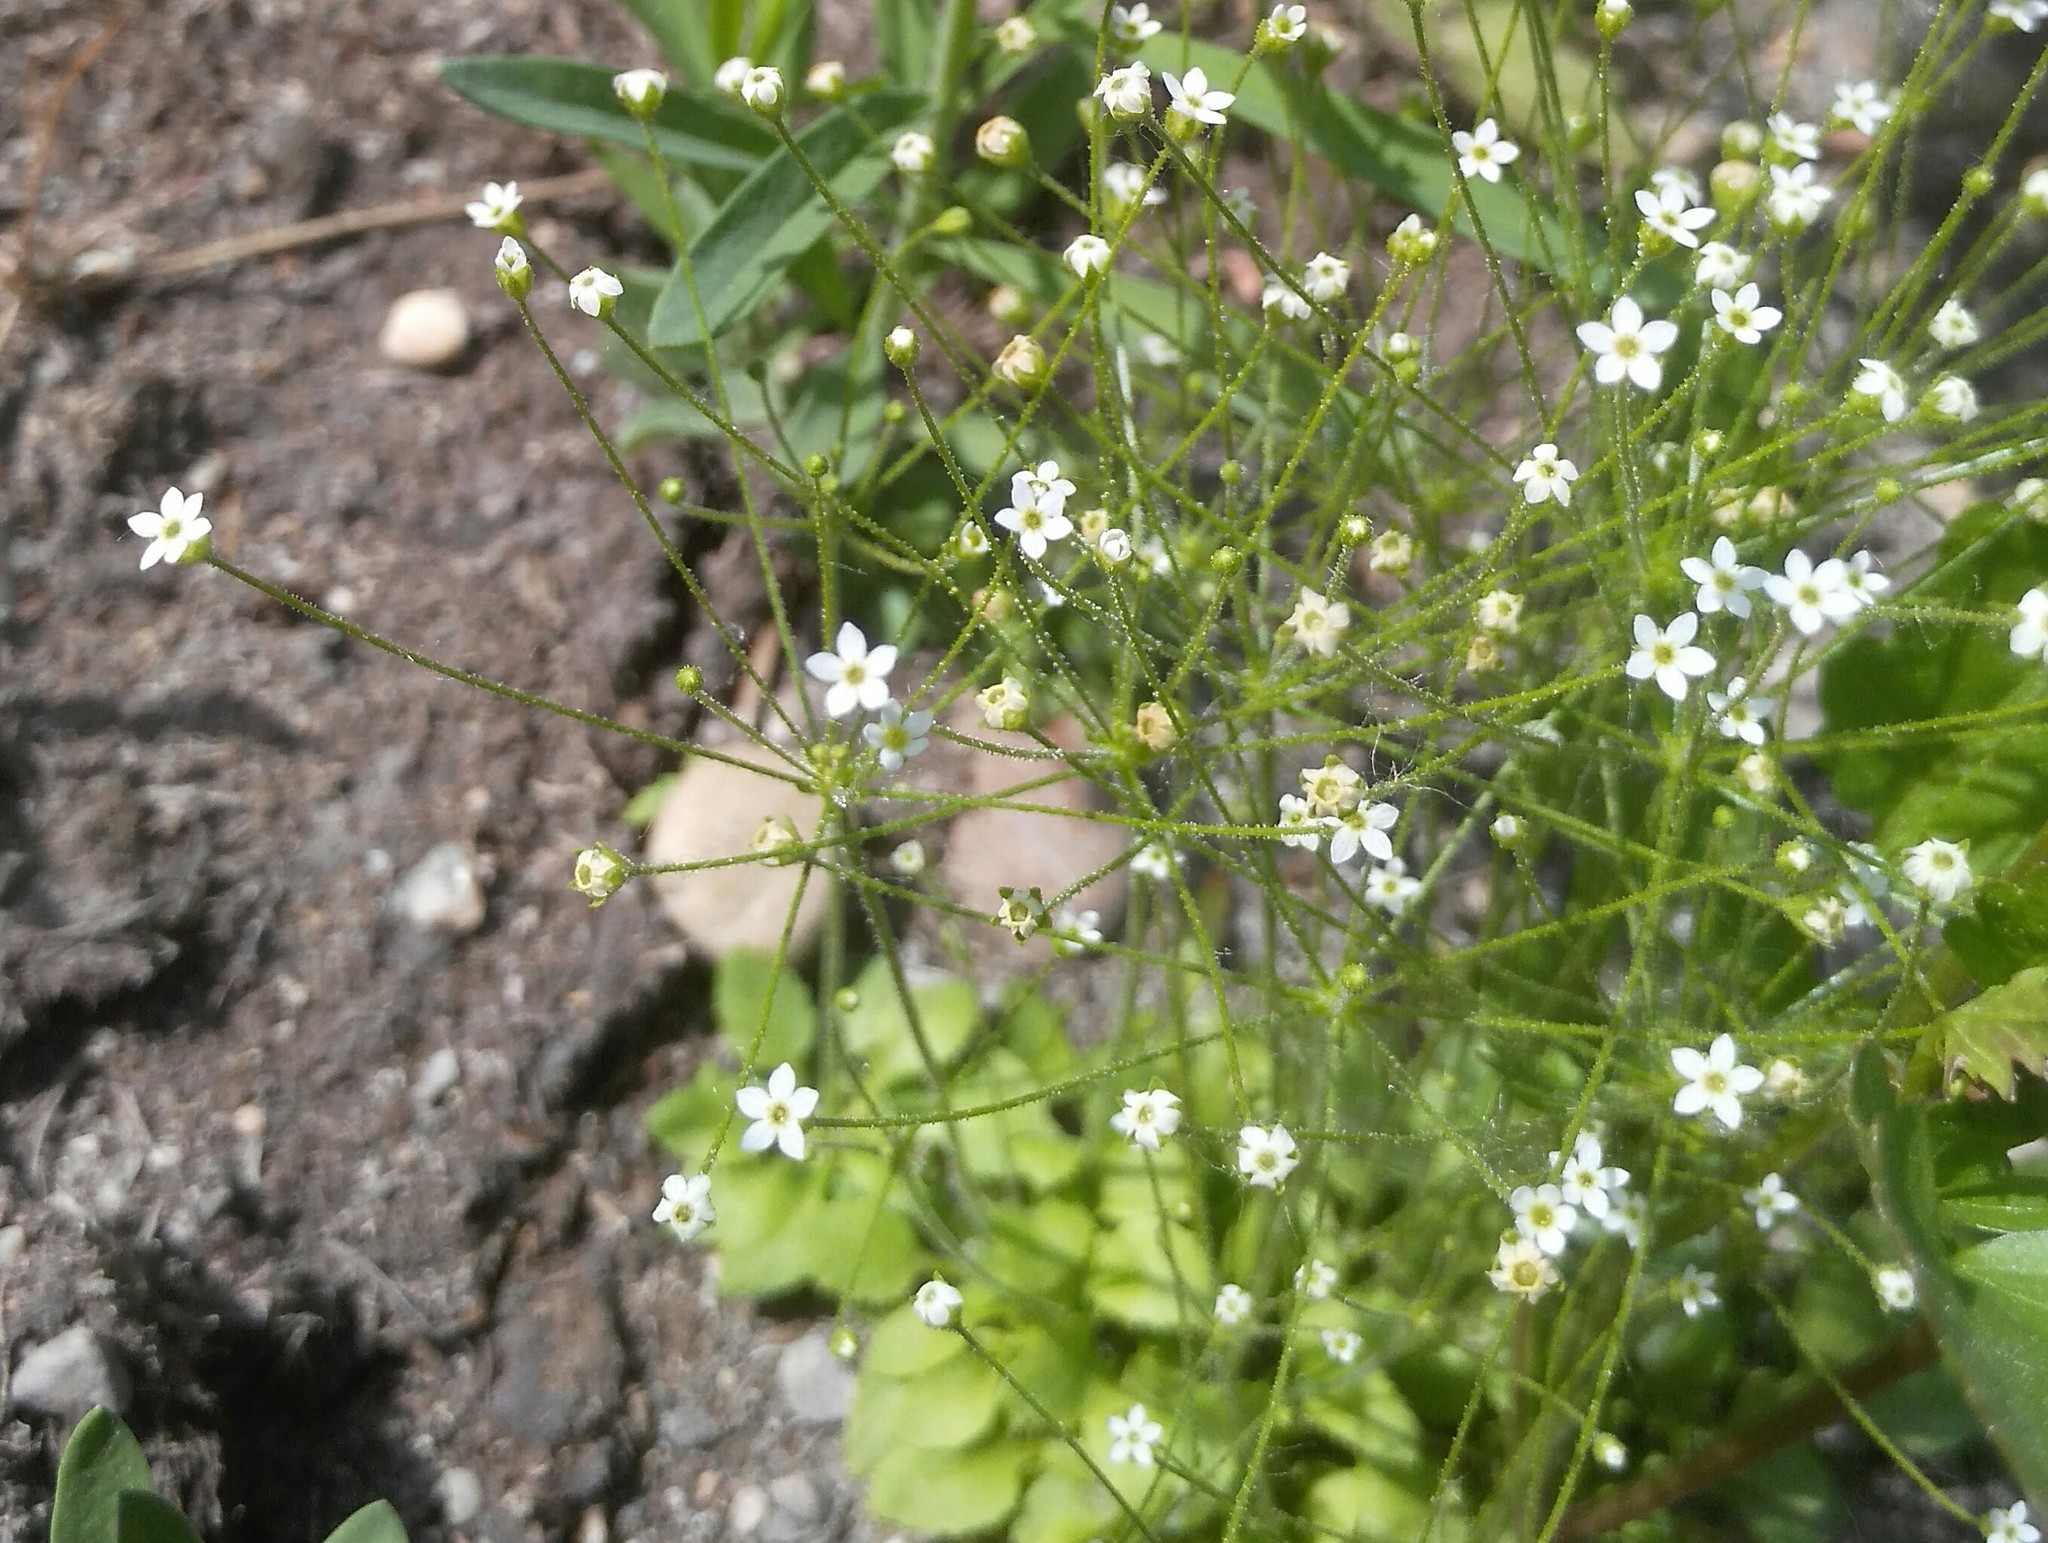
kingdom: Plantae
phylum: Tracheophyta
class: Magnoliopsida
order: Ericales
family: Primulaceae
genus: Androsace
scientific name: Androsace filiformis
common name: Filiform rock jasmine
